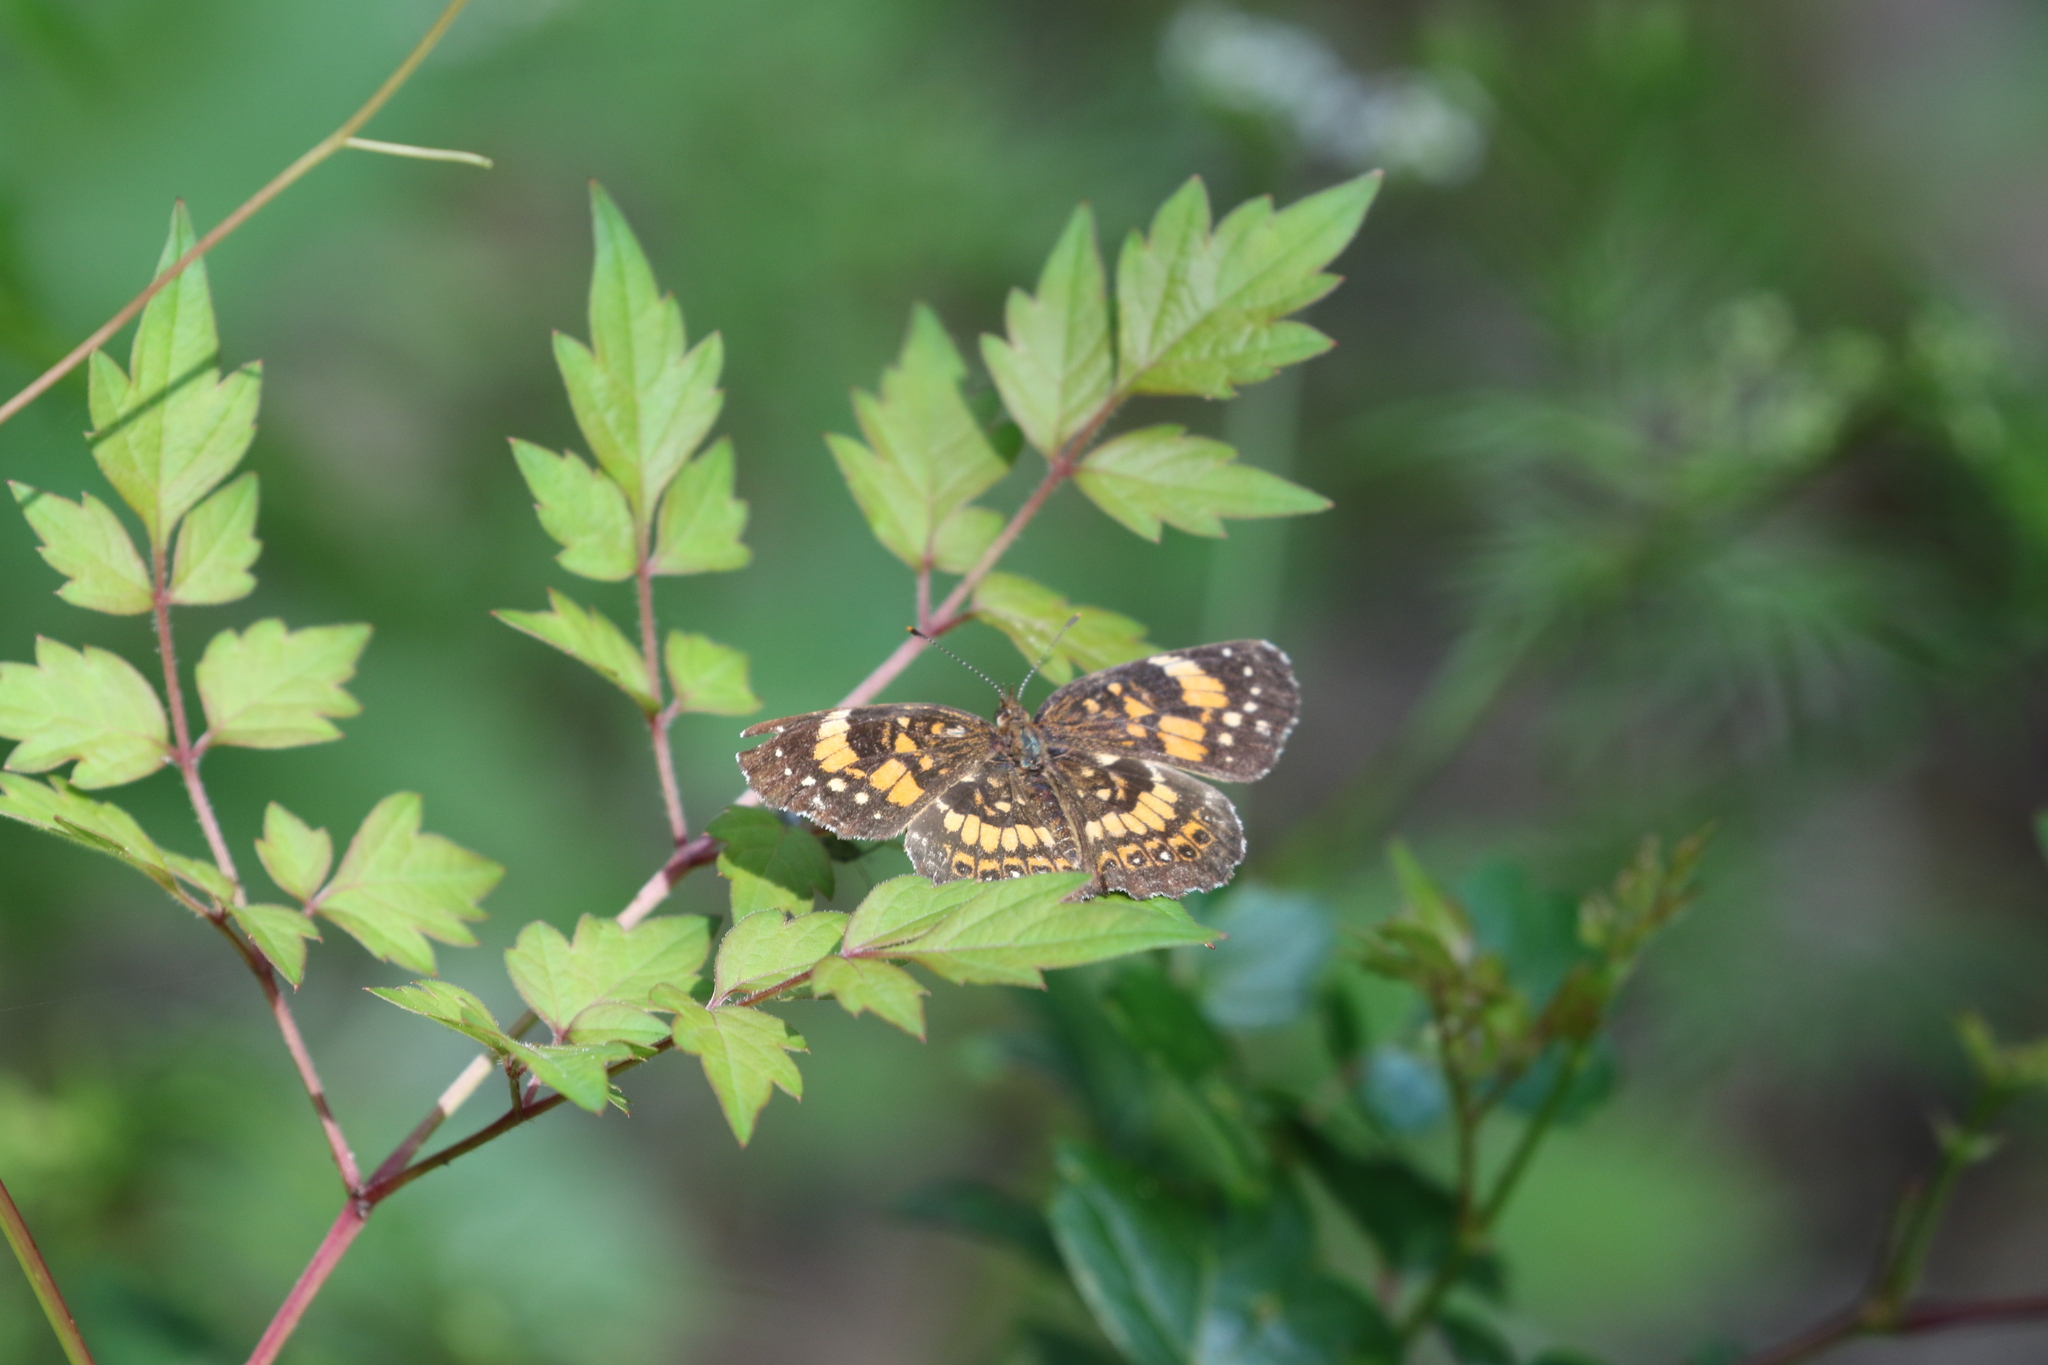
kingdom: Animalia
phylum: Arthropoda
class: Insecta
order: Lepidoptera
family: Nymphalidae
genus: Chlosyne
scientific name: Chlosyne nycteis
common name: Silvery checkerspot
